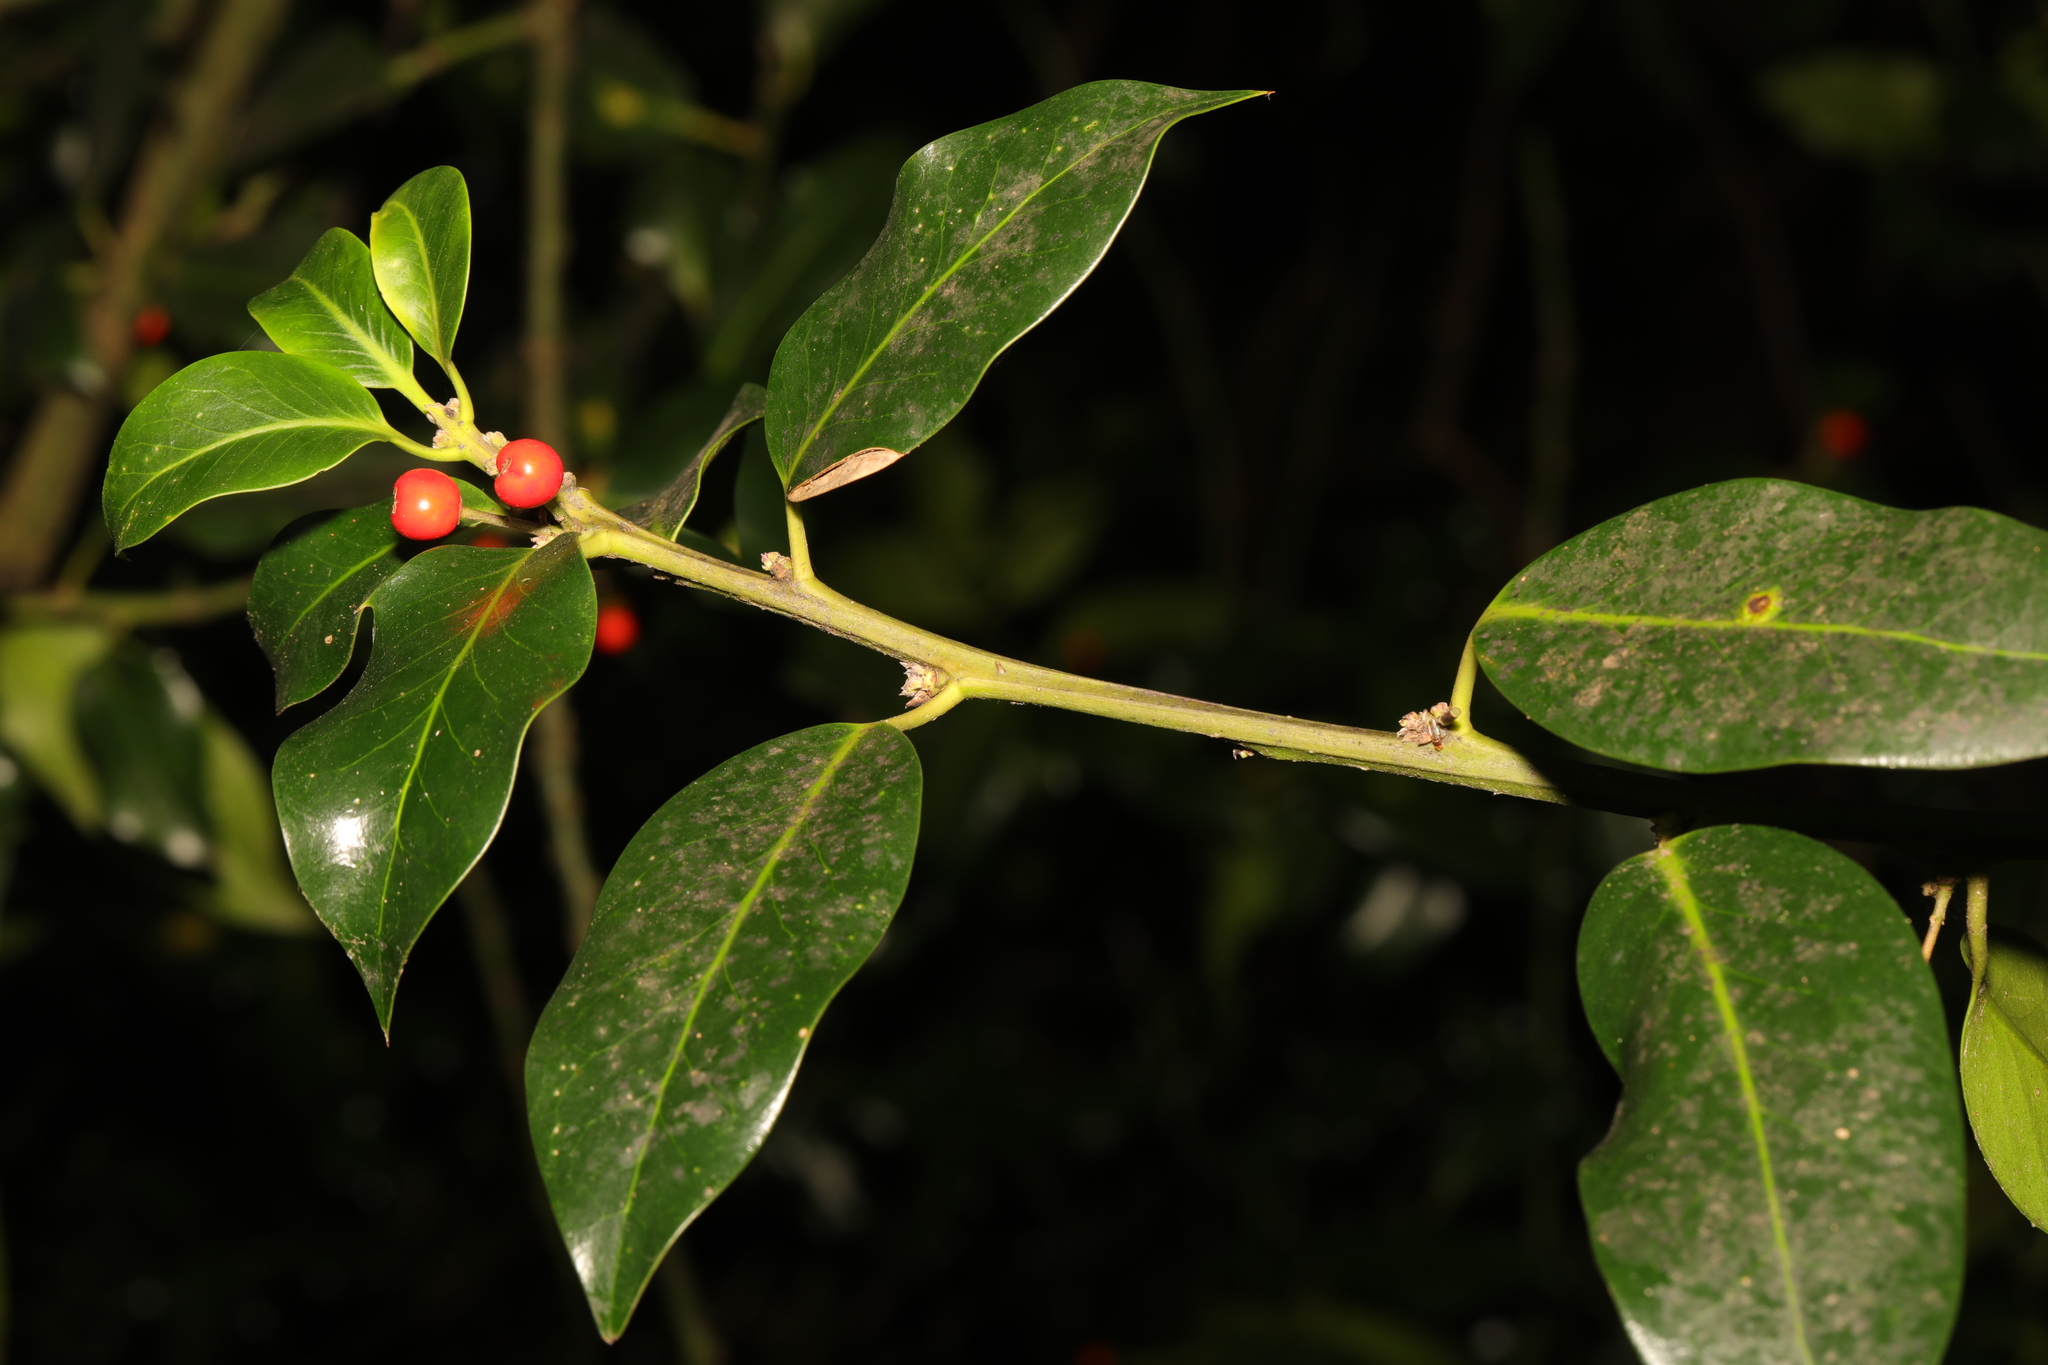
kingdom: Plantae
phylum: Tracheophyta
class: Magnoliopsida
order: Aquifoliales
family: Aquifoliaceae
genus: Ilex
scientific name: Ilex aquifolium
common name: English holly
